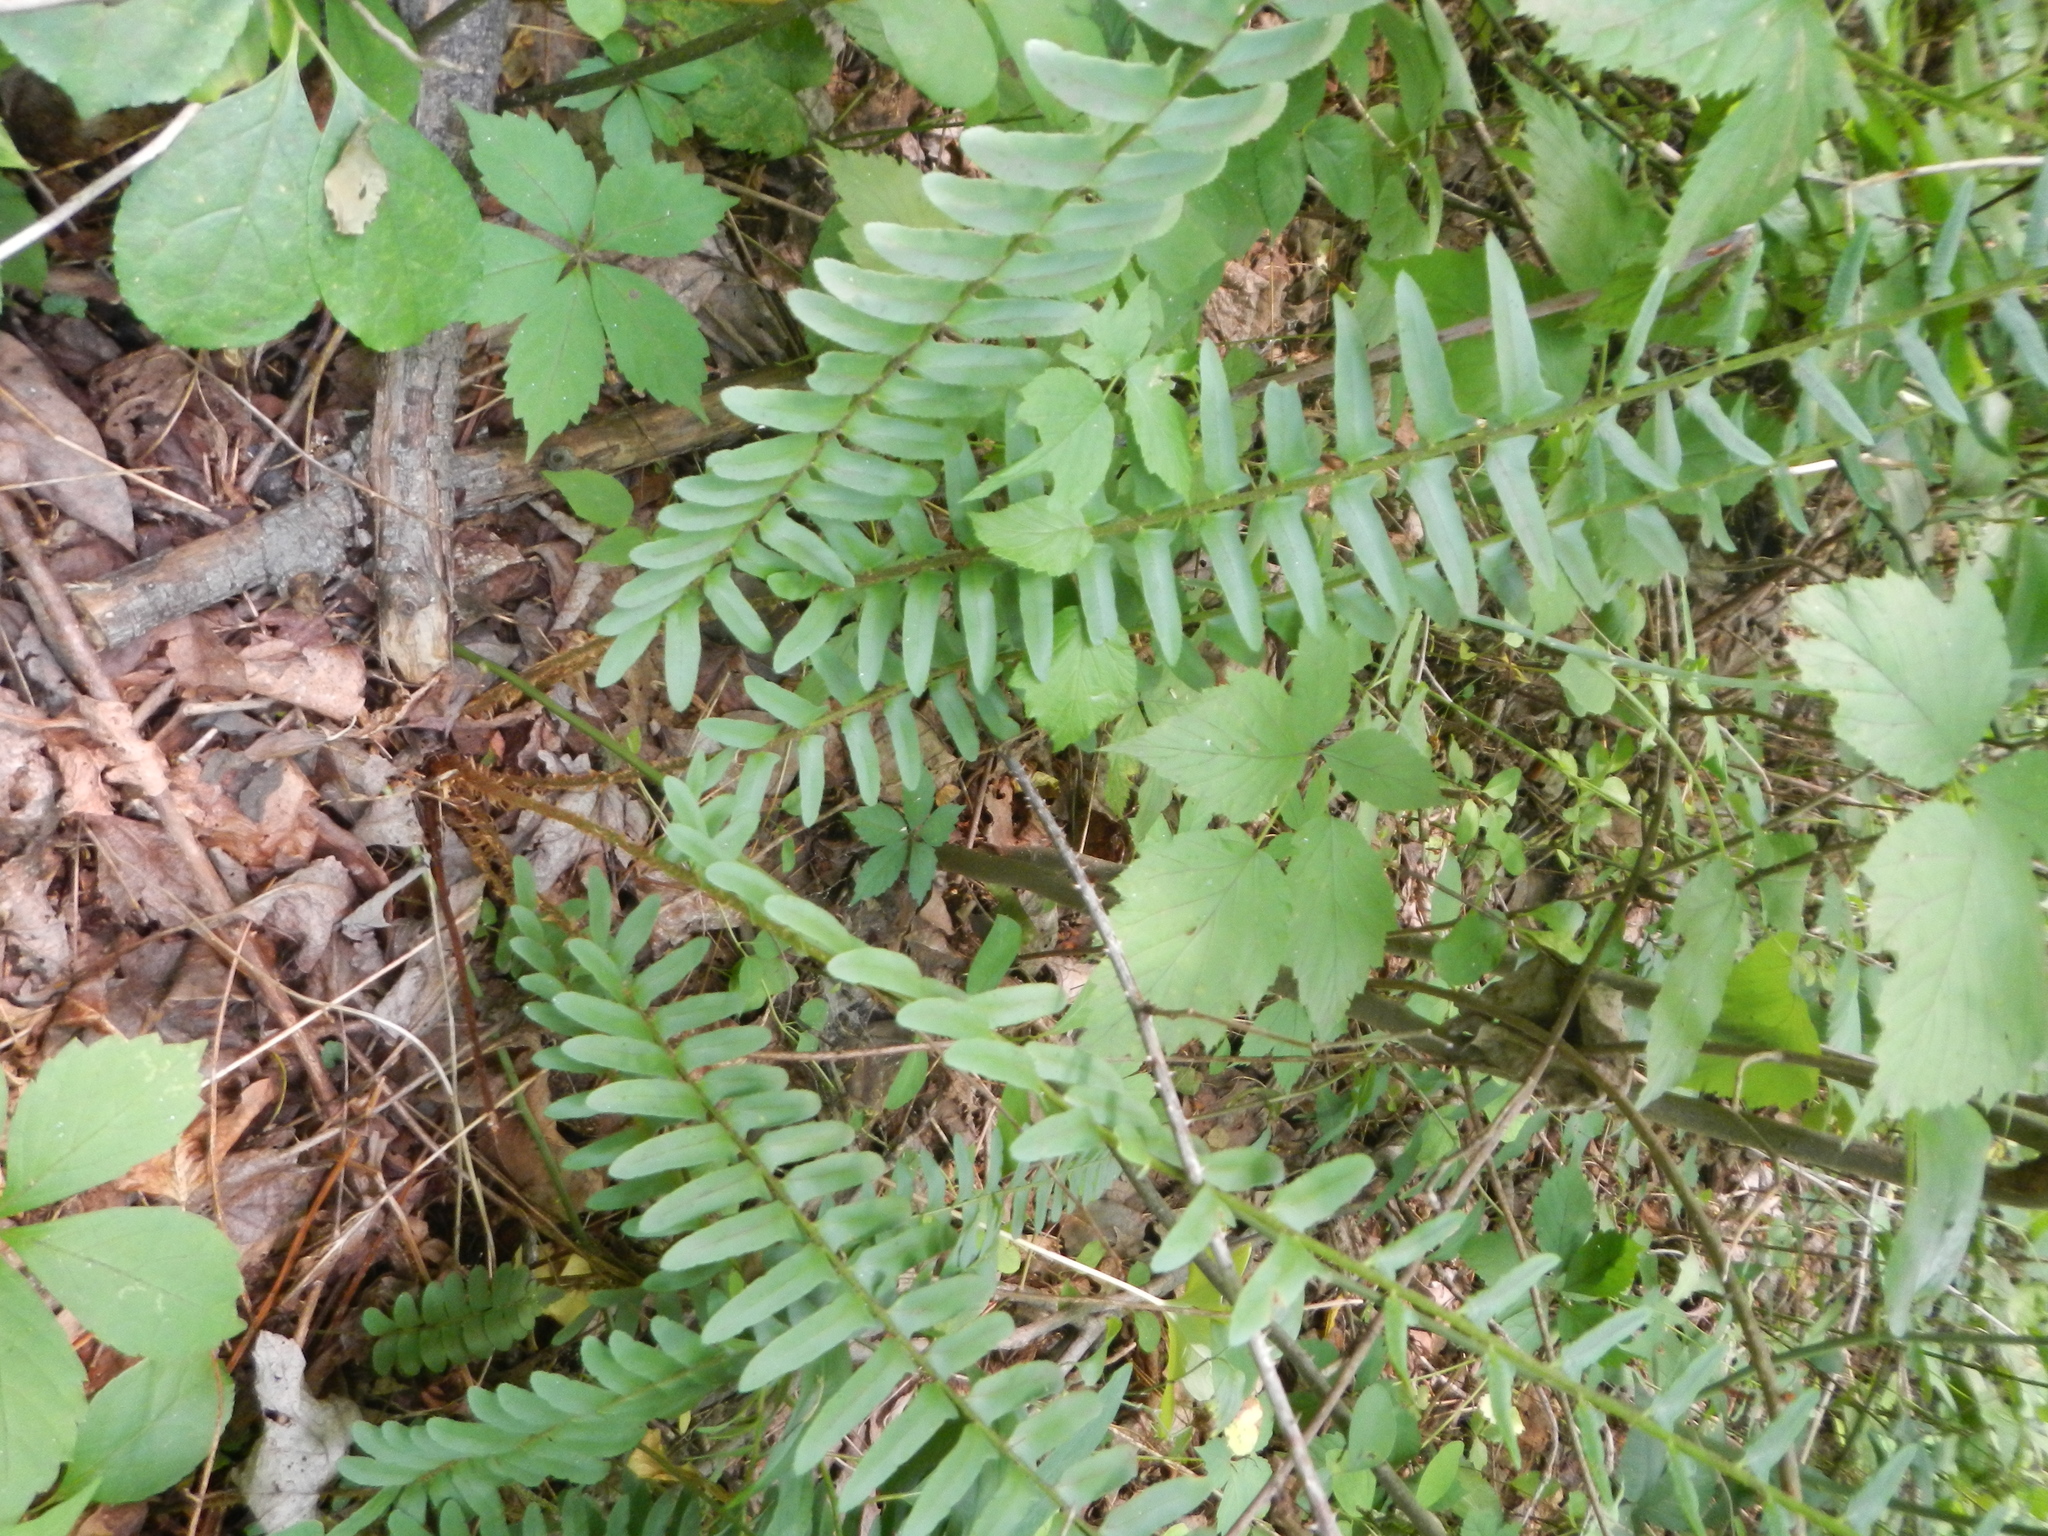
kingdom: Plantae
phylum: Tracheophyta
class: Polypodiopsida
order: Polypodiales
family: Dryopteridaceae
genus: Polystichum
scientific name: Polystichum acrostichoides
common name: Christmas fern
